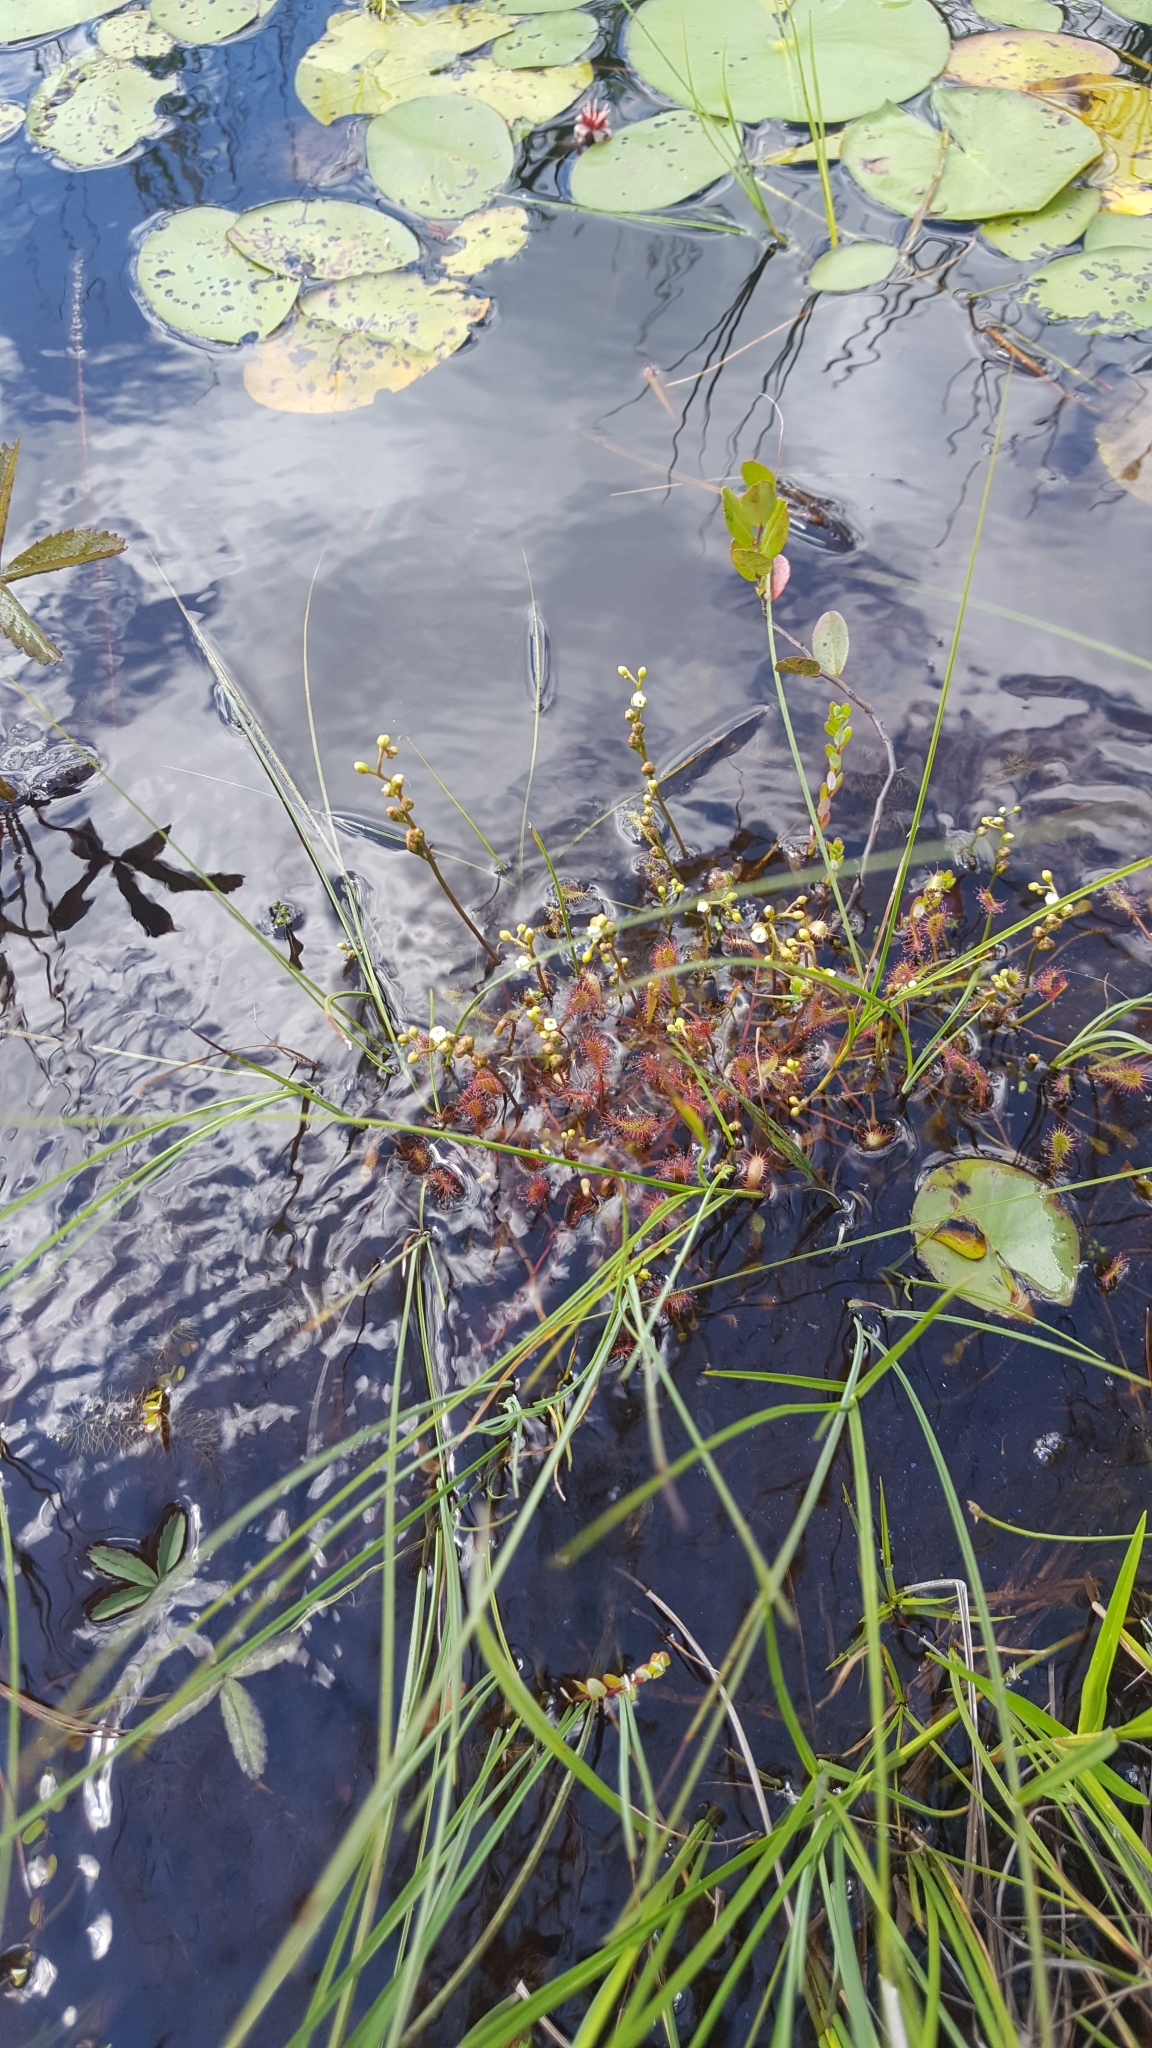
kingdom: Plantae
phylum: Tracheophyta
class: Magnoliopsida
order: Caryophyllales
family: Droseraceae
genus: Drosera
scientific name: Drosera intermedia
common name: Oblong-leaved sundew
